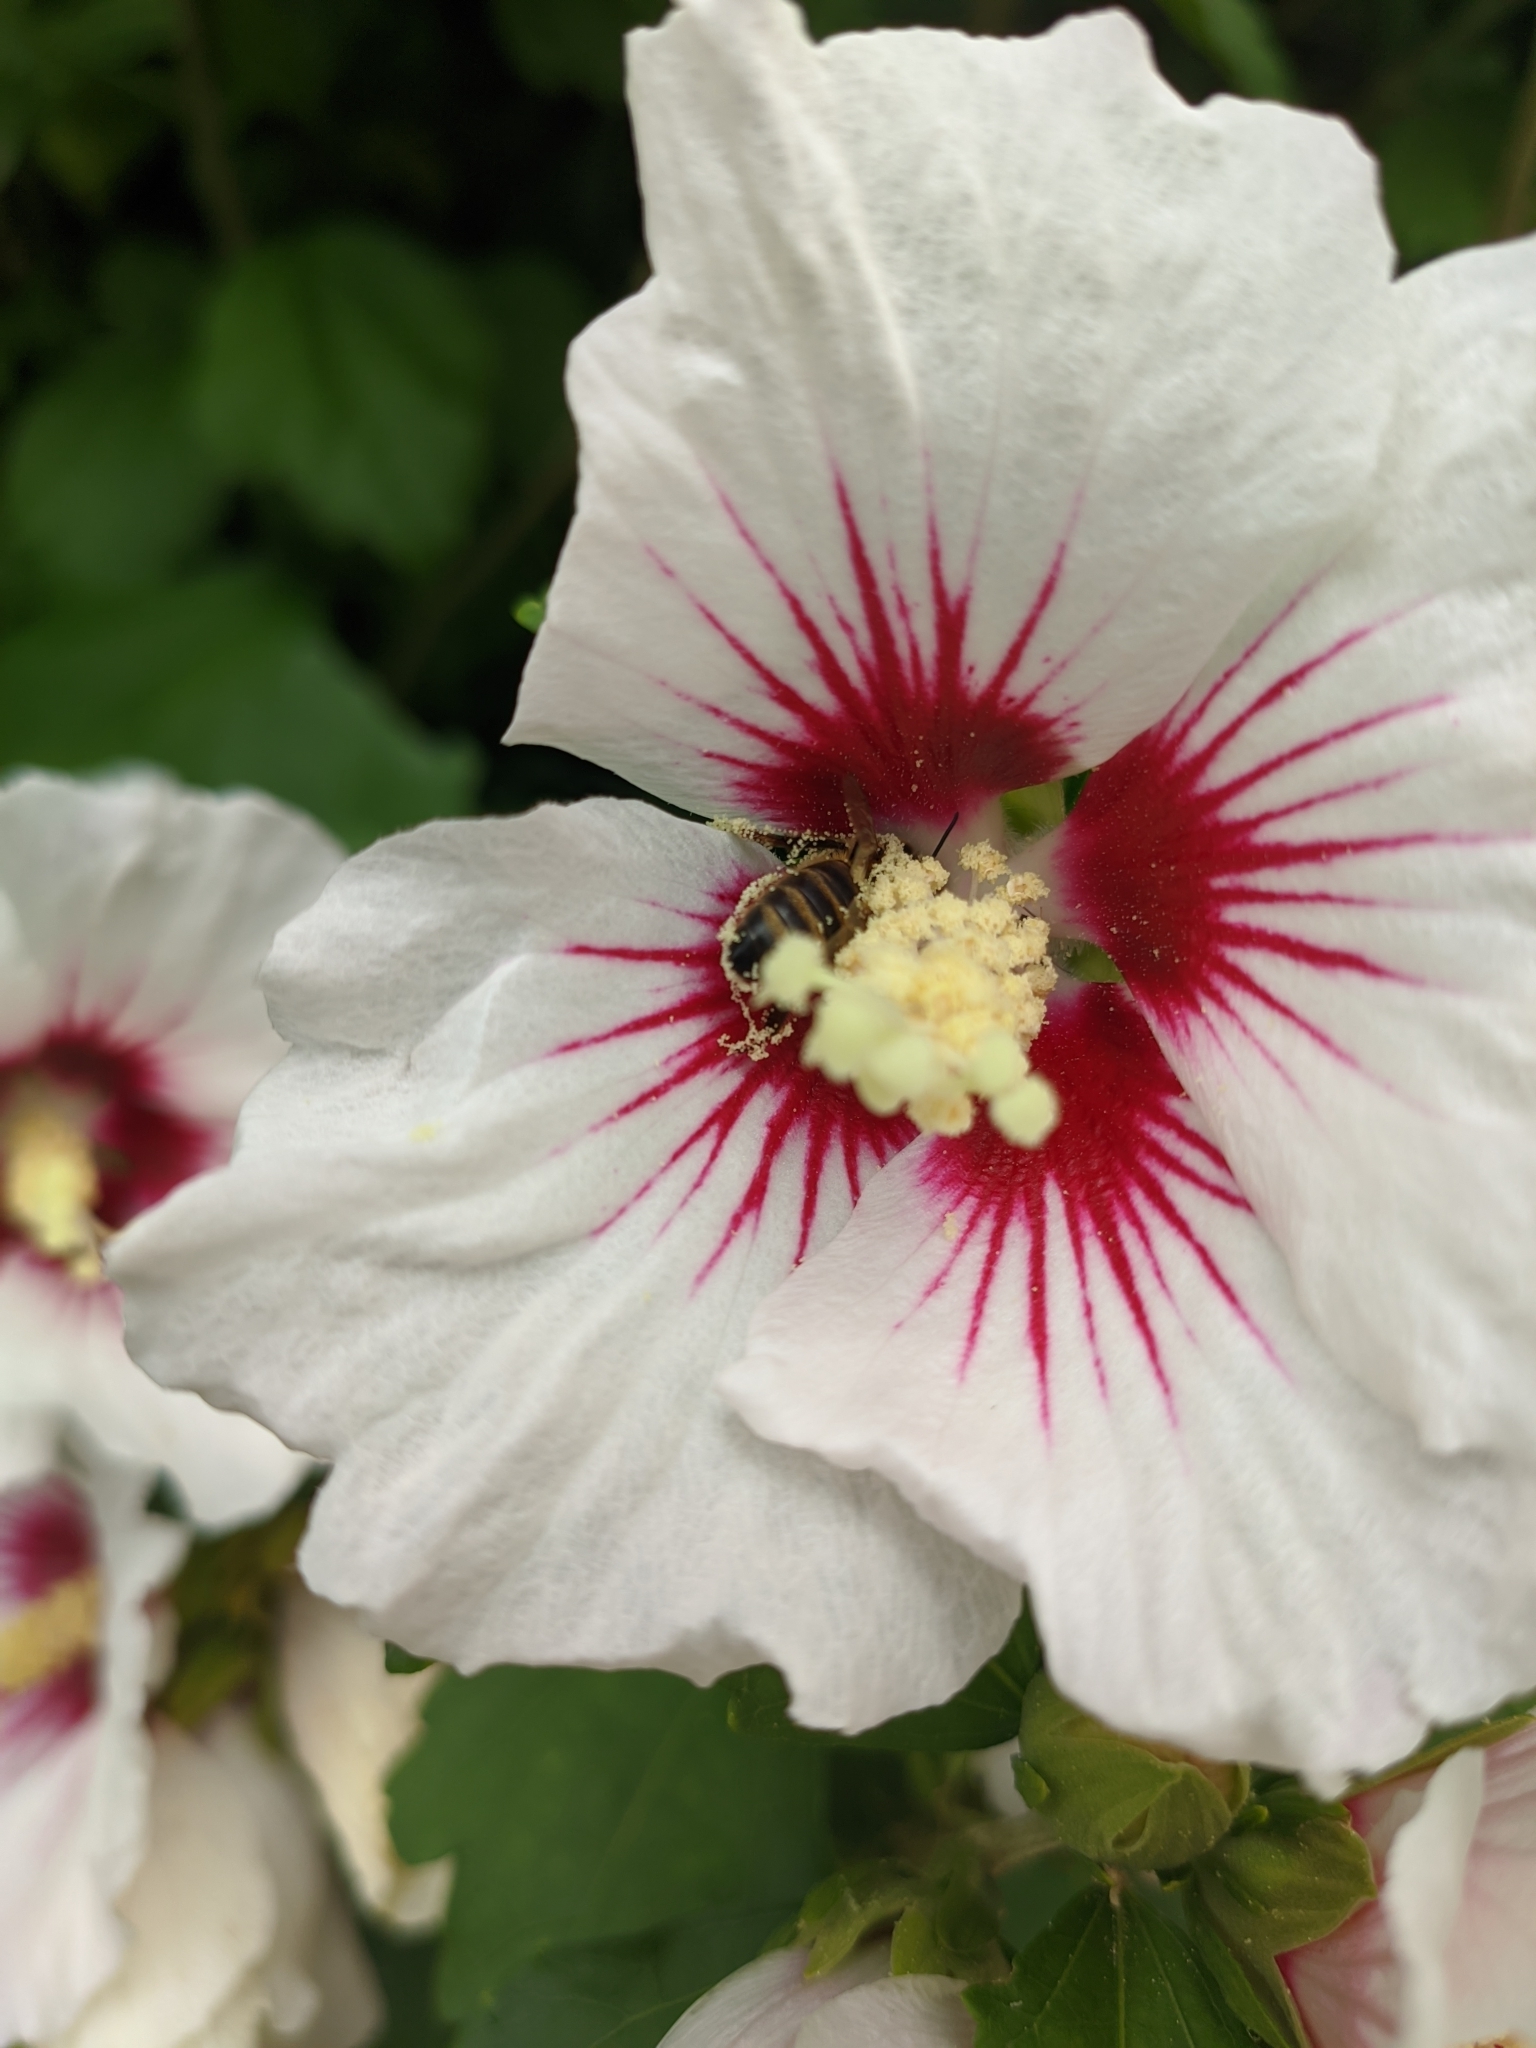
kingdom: Animalia
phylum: Arthropoda
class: Insecta
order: Hymenoptera
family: Apidae
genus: Apis
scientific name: Apis mellifera
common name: Honey bee
